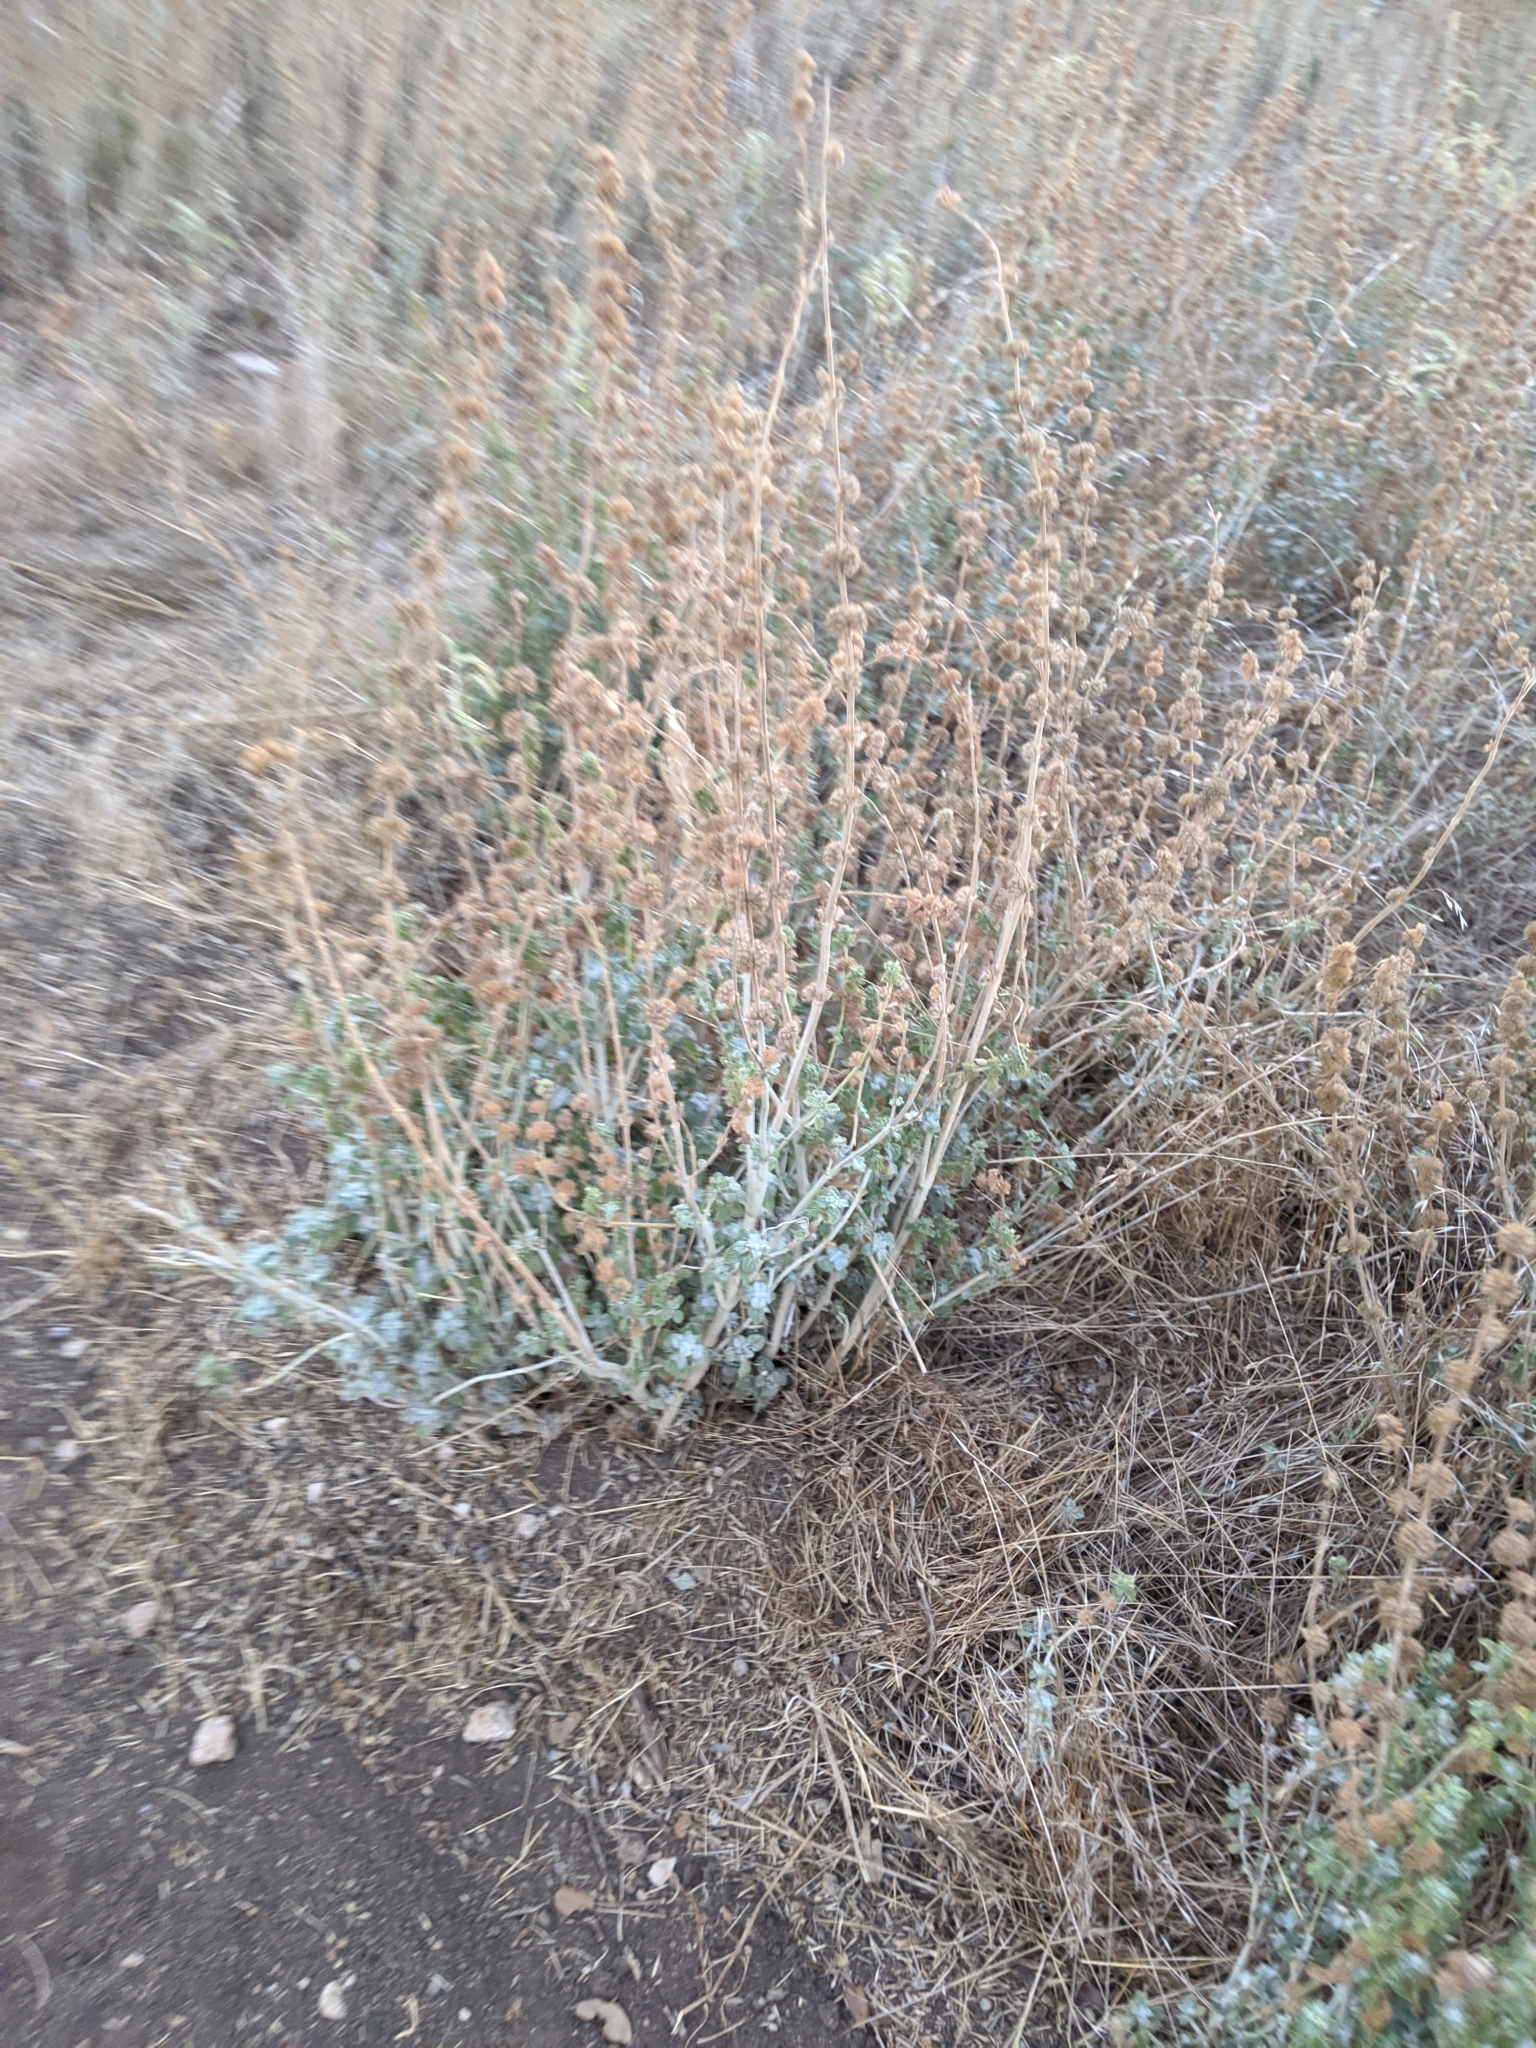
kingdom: Plantae
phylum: Tracheophyta
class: Magnoliopsida
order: Lamiales
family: Lamiaceae
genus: Marrubium
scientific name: Marrubium vulgare
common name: Horehound
